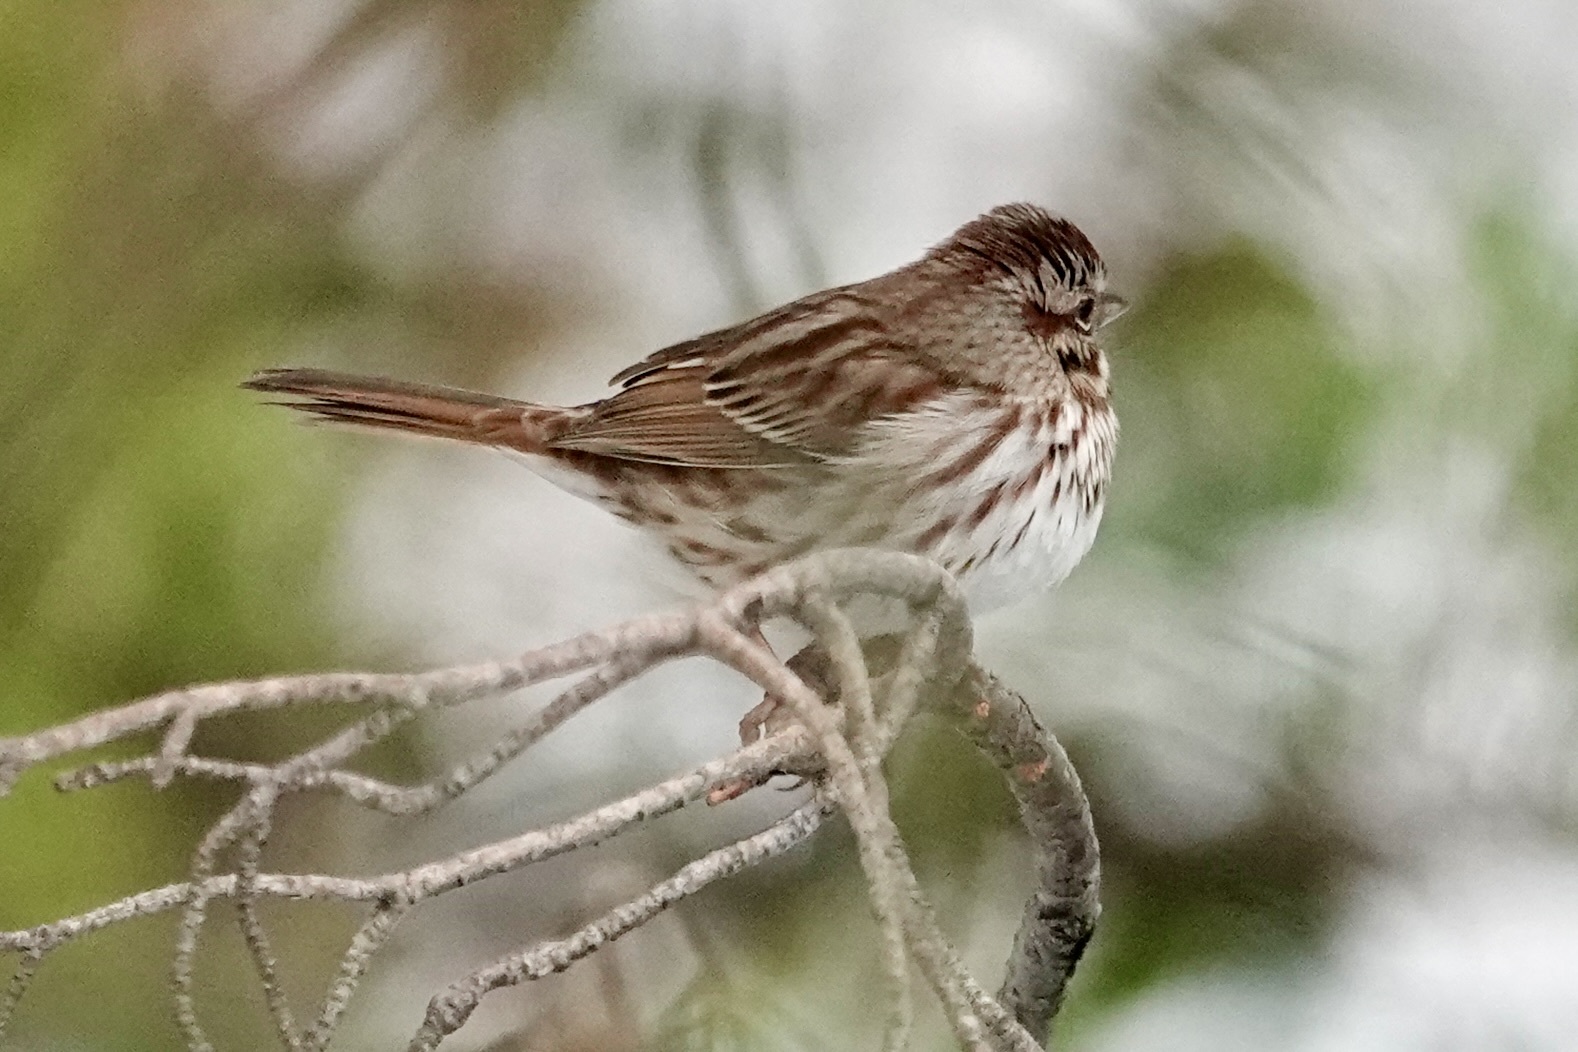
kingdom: Animalia
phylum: Chordata
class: Aves
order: Passeriformes
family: Passerellidae
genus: Melospiza
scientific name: Melospiza melodia
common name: Song sparrow
